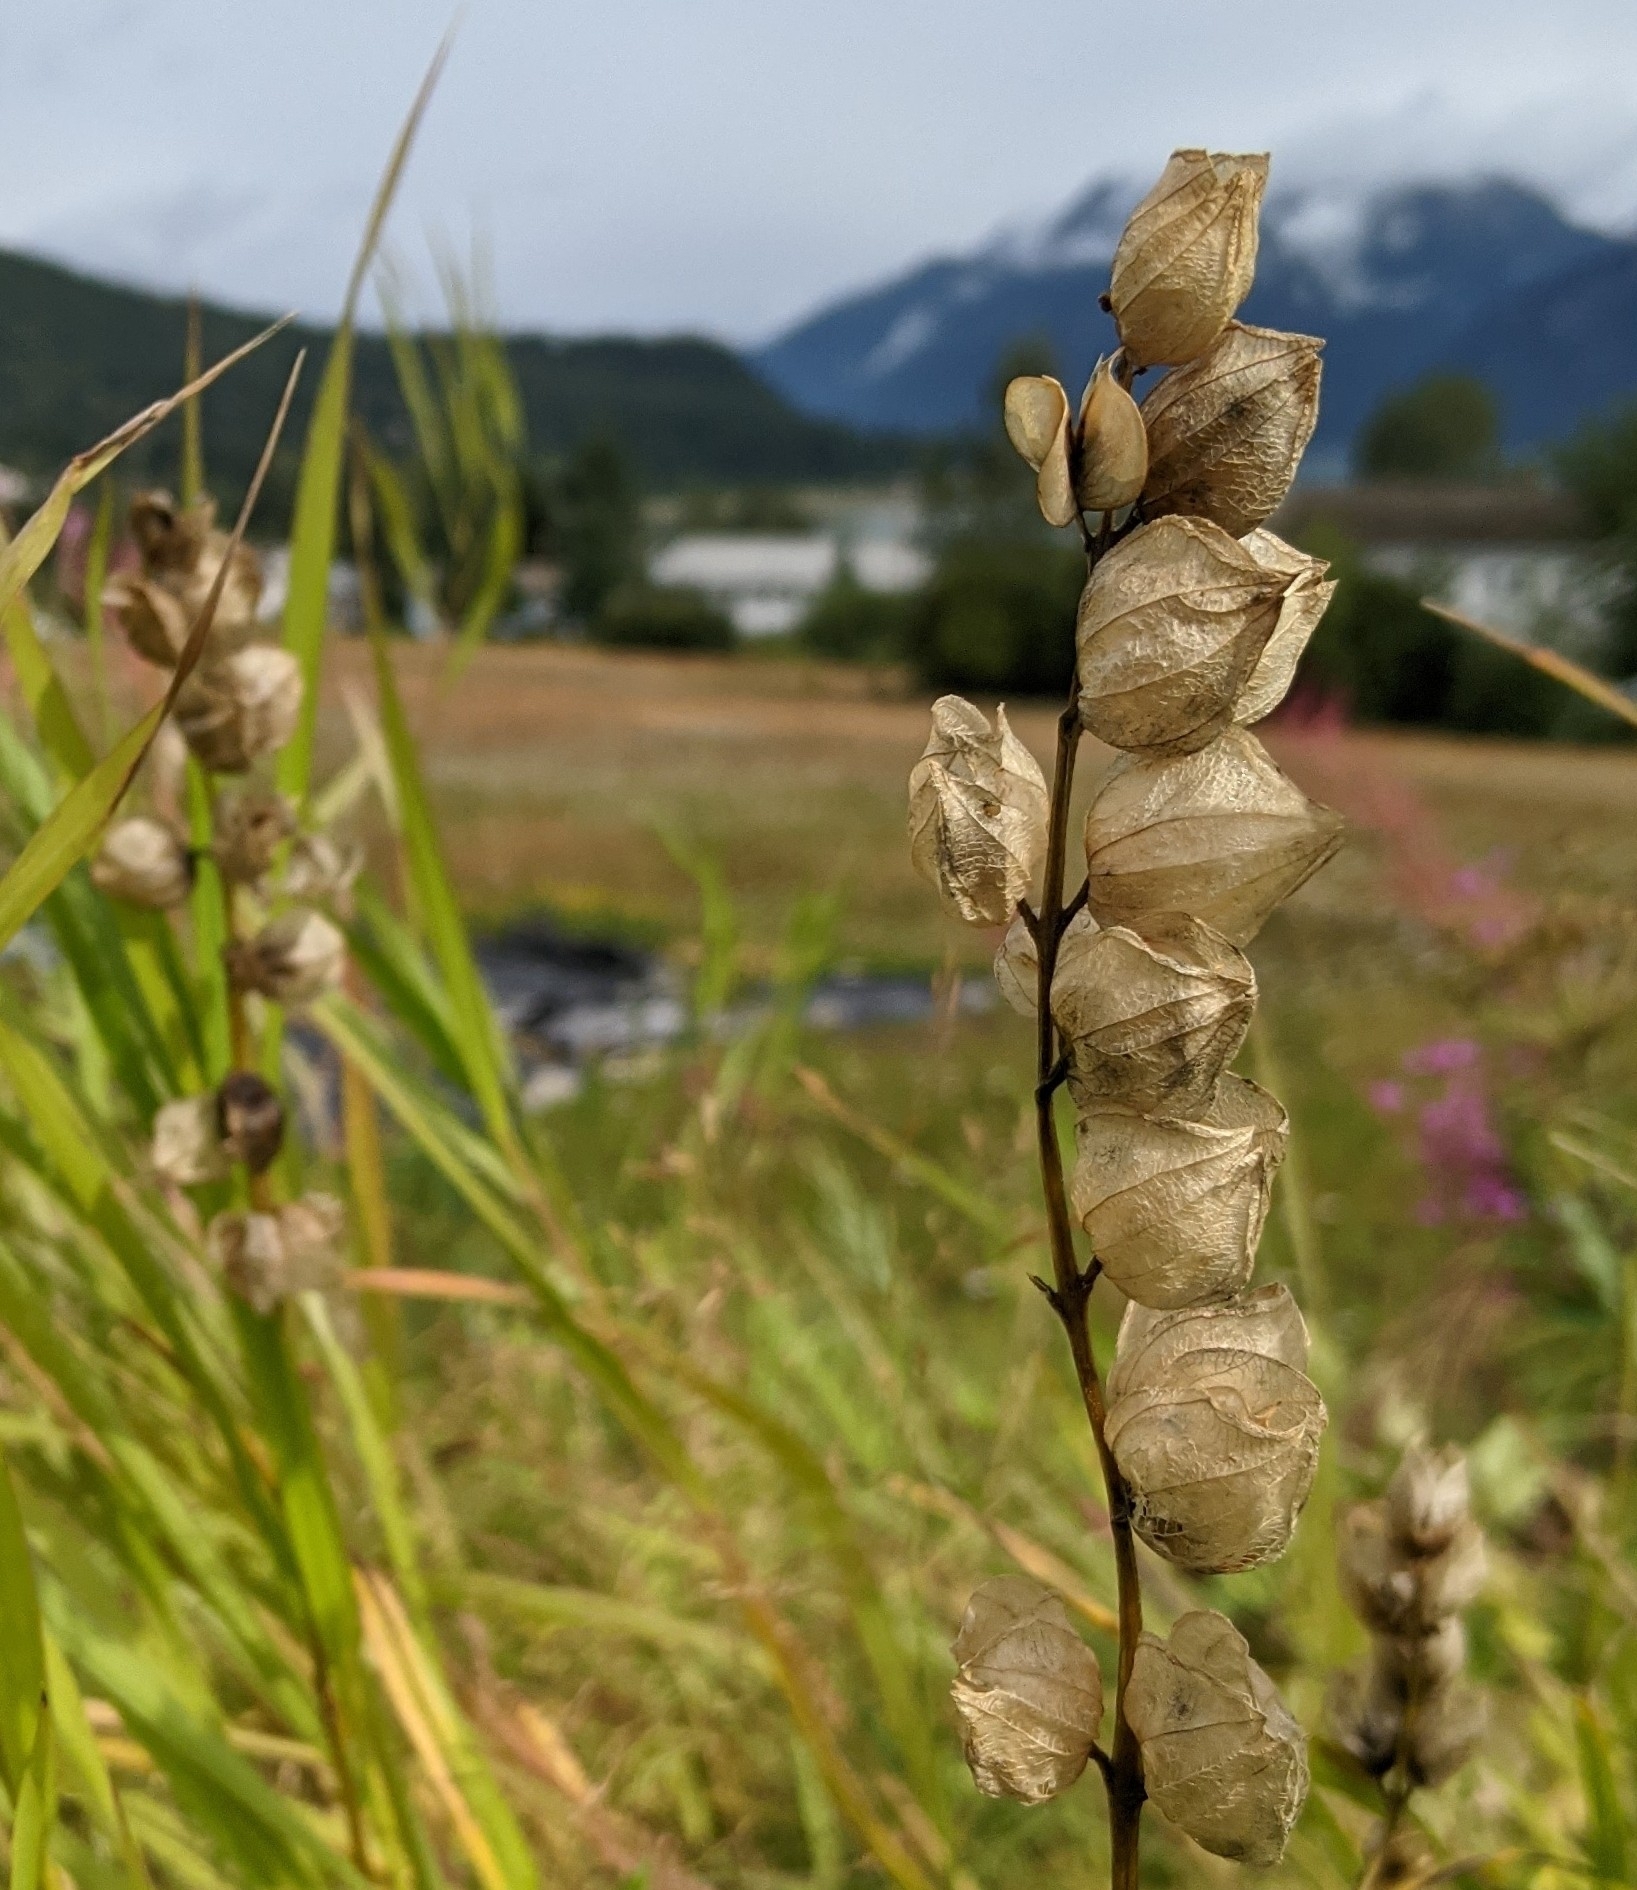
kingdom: Plantae
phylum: Tracheophyta
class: Magnoliopsida
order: Lamiales
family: Orobanchaceae
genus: Rhinanthus
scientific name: Rhinanthus minor
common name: Yellow-rattle
